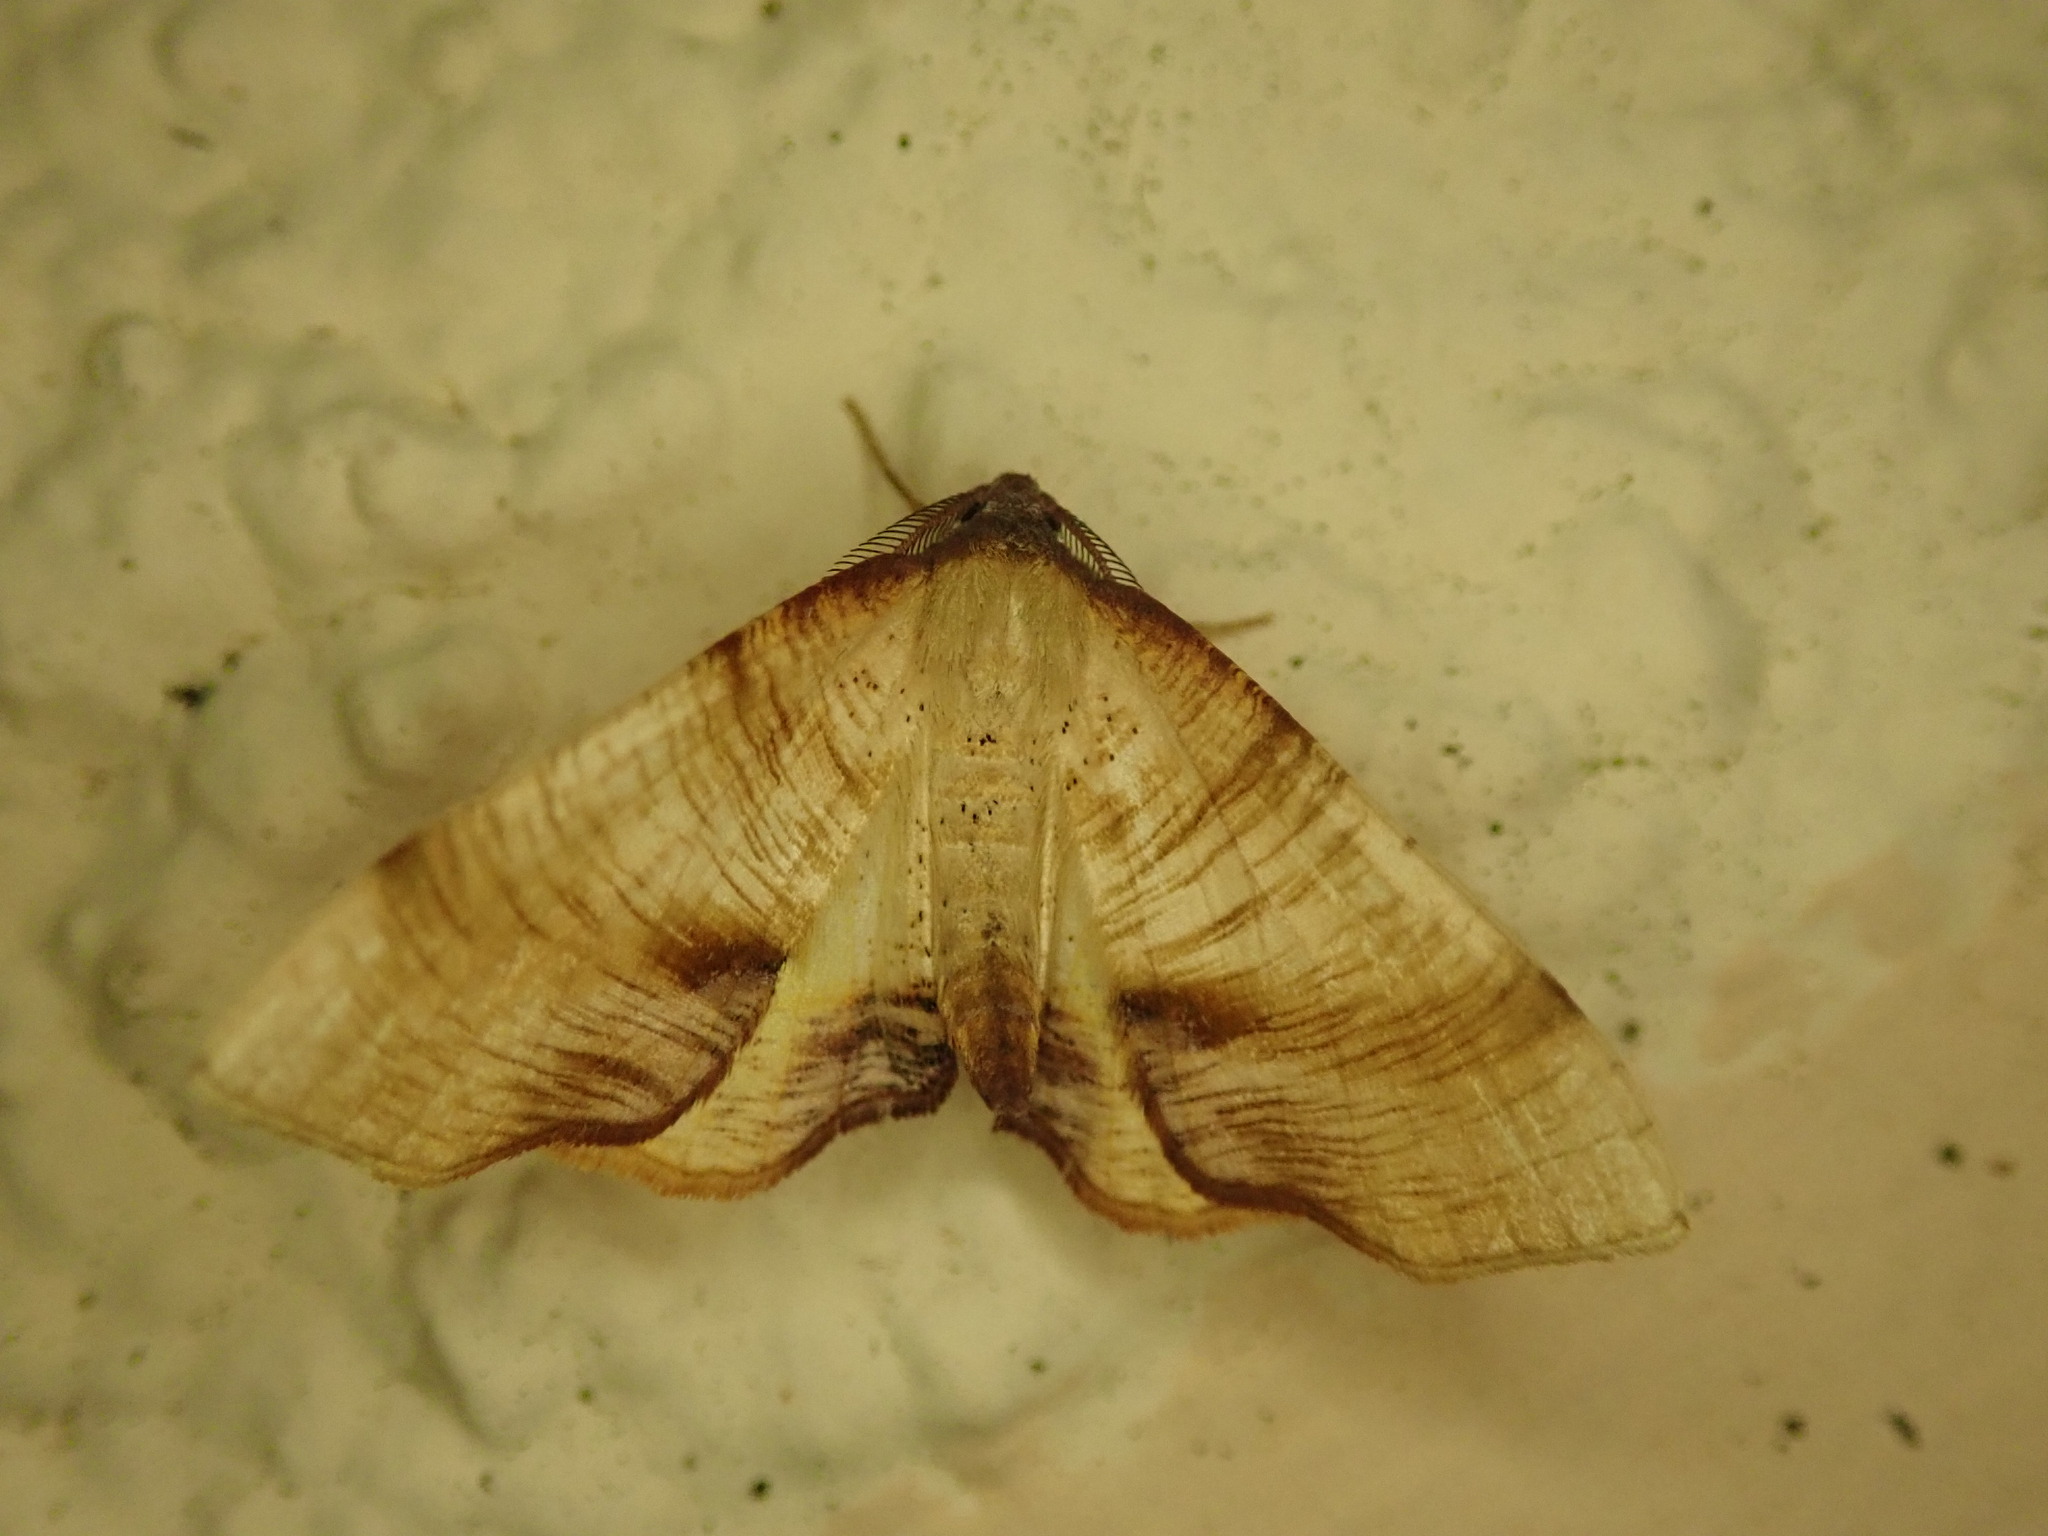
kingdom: Animalia
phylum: Arthropoda
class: Insecta
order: Lepidoptera
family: Geometridae
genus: Plagodis
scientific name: Plagodis dolabraria
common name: Scorched wing
